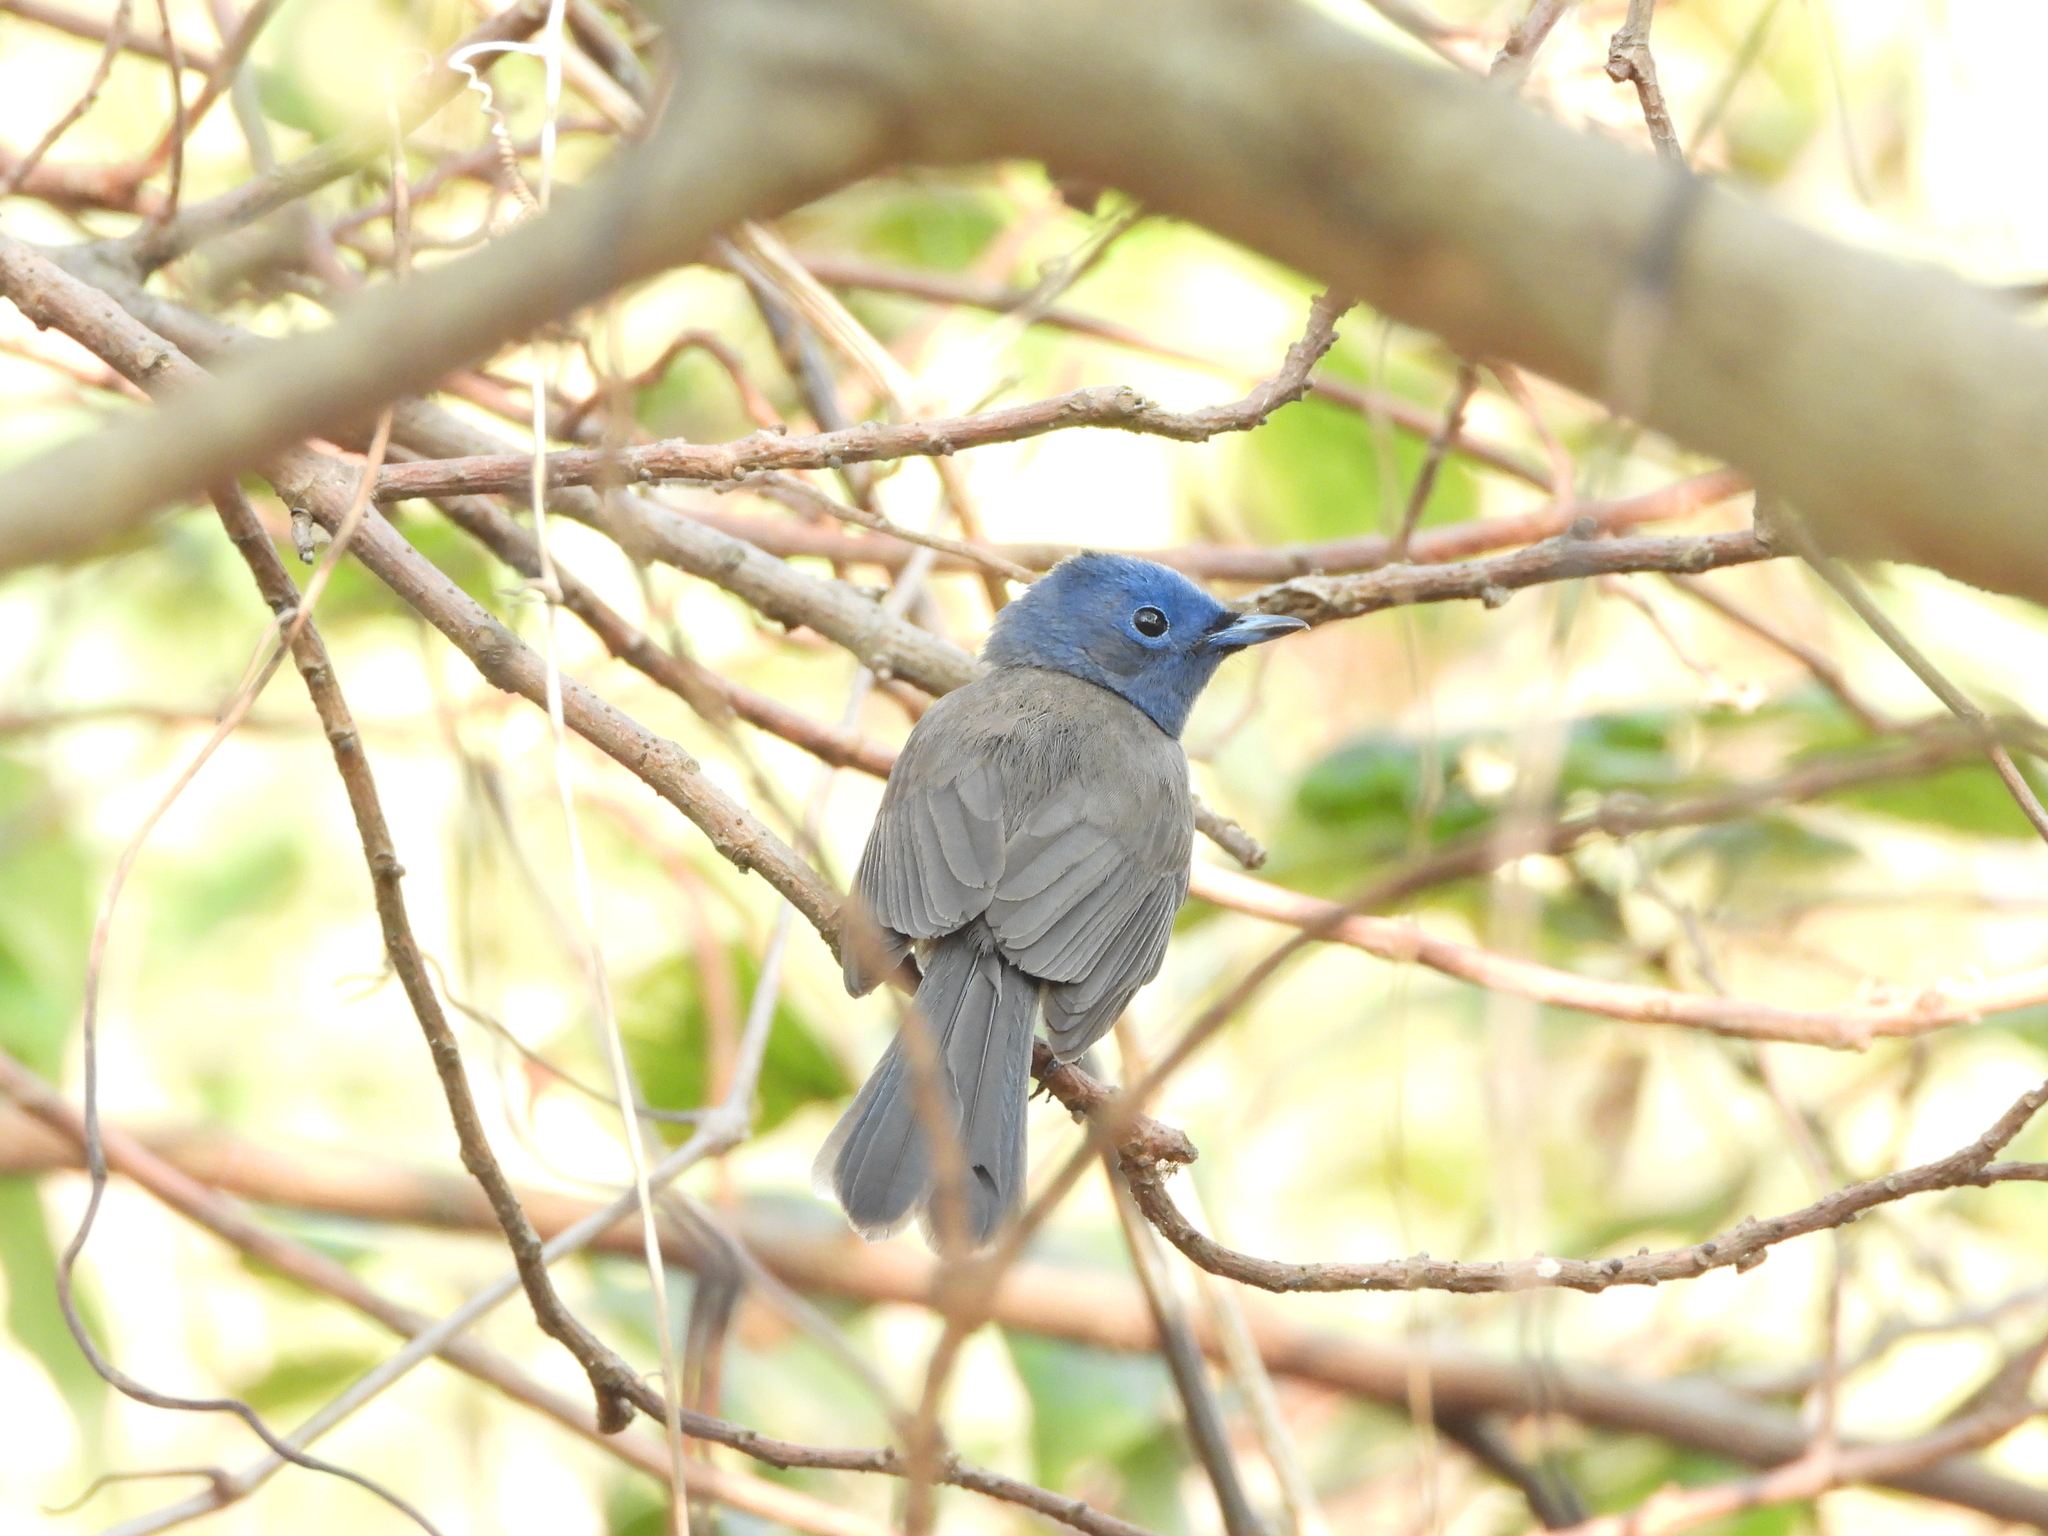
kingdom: Animalia
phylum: Chordata
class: Aves
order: Passeriformes
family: Monarchidae
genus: Hypothymis
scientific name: Hypothymis azurea
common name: Black-naped monarch
